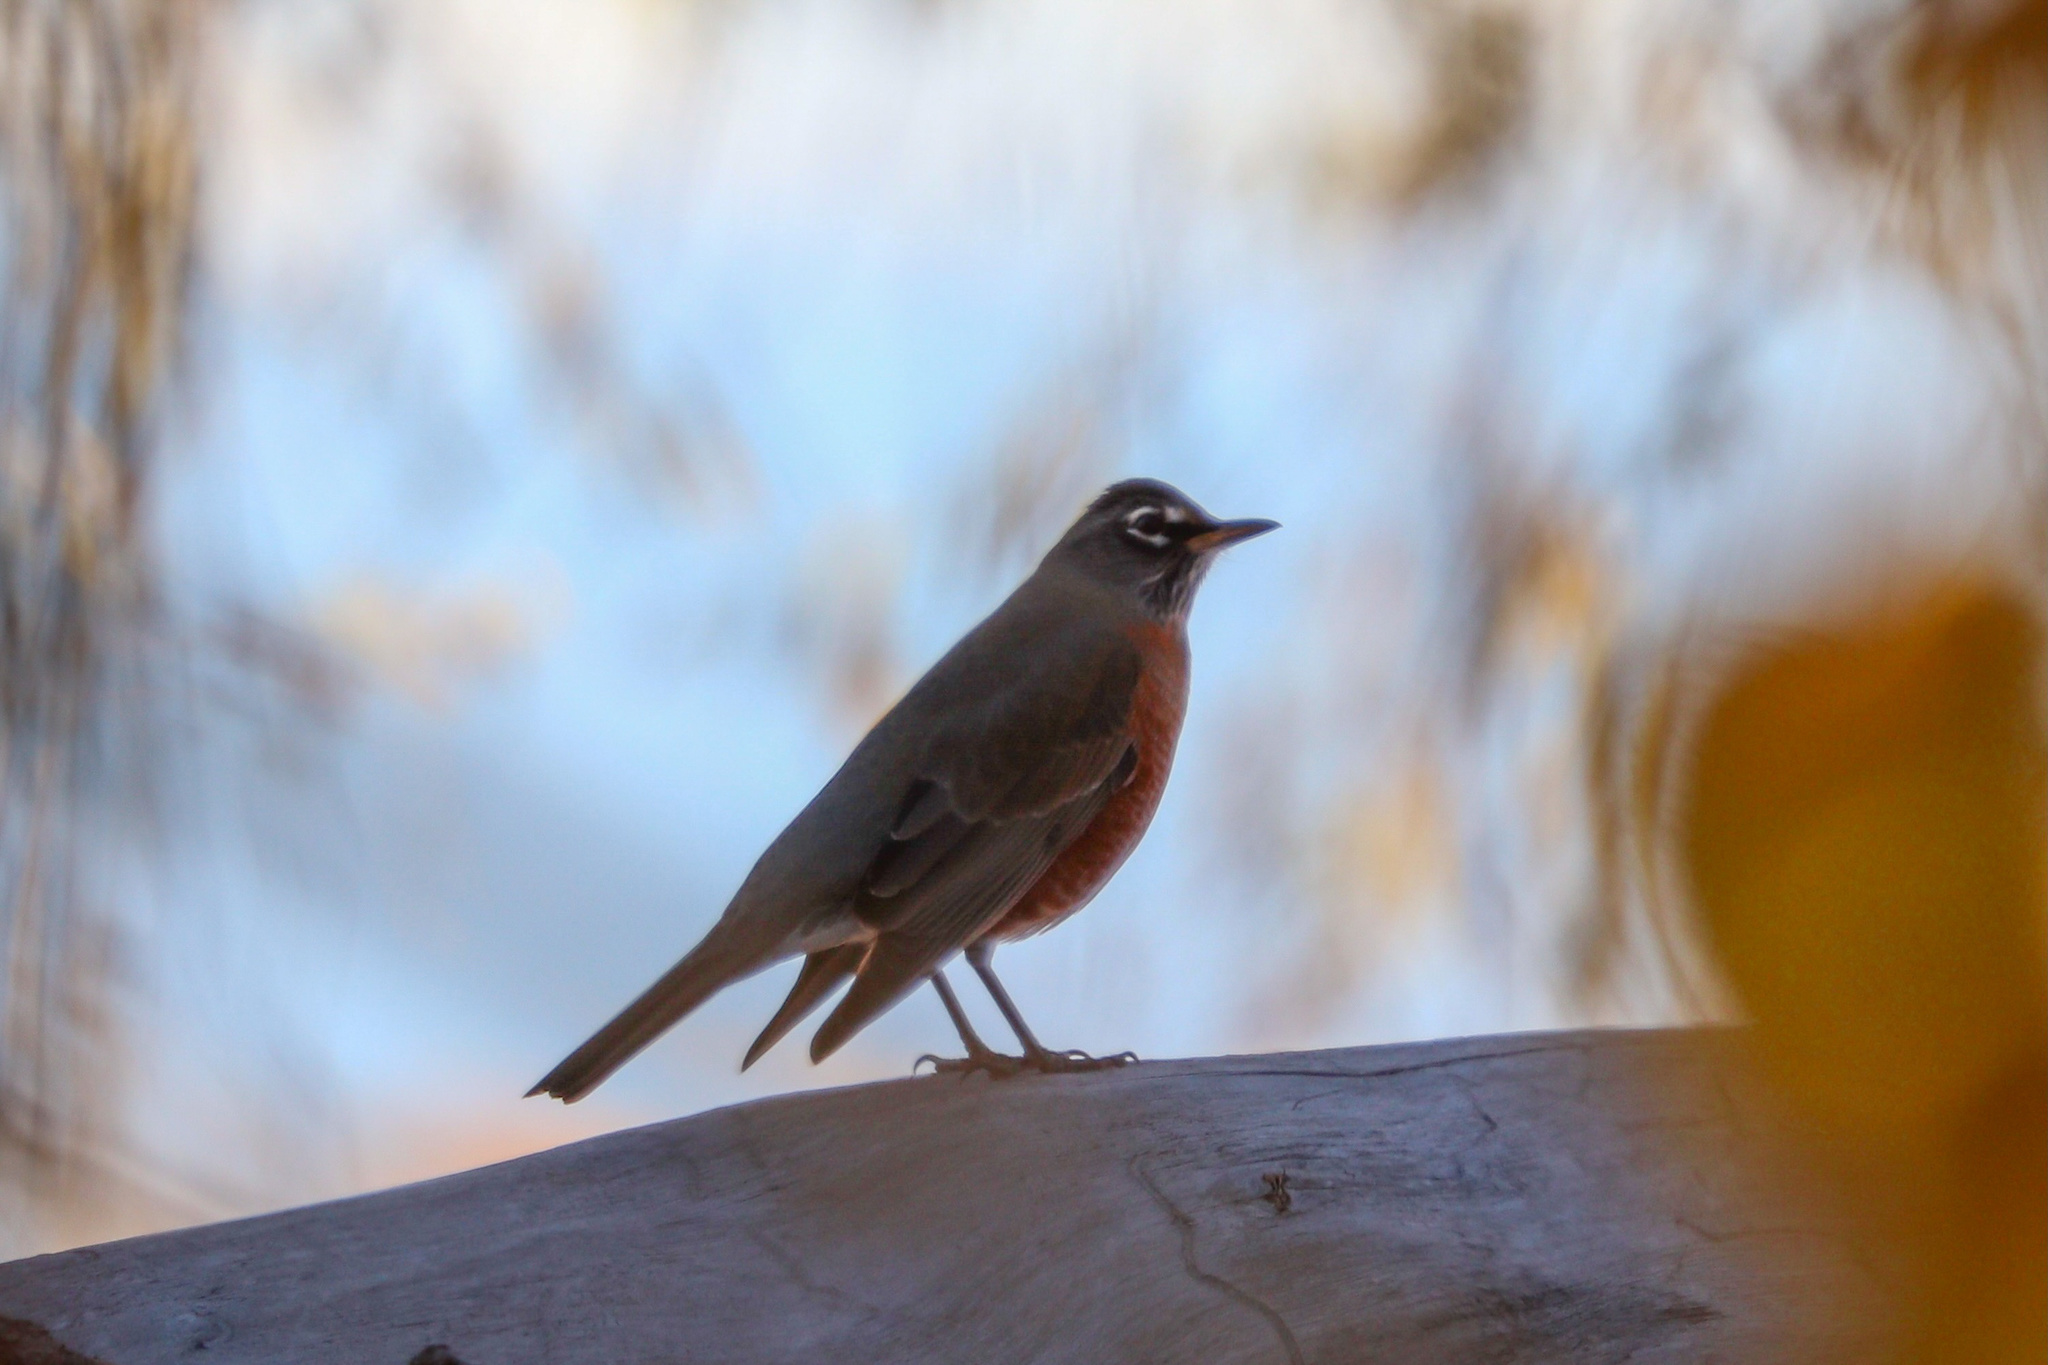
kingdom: Animalia
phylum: Chordata
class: Aves
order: Passeriformes
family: Turdidae
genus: Turdus
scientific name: Turdus migratorius
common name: American robin
